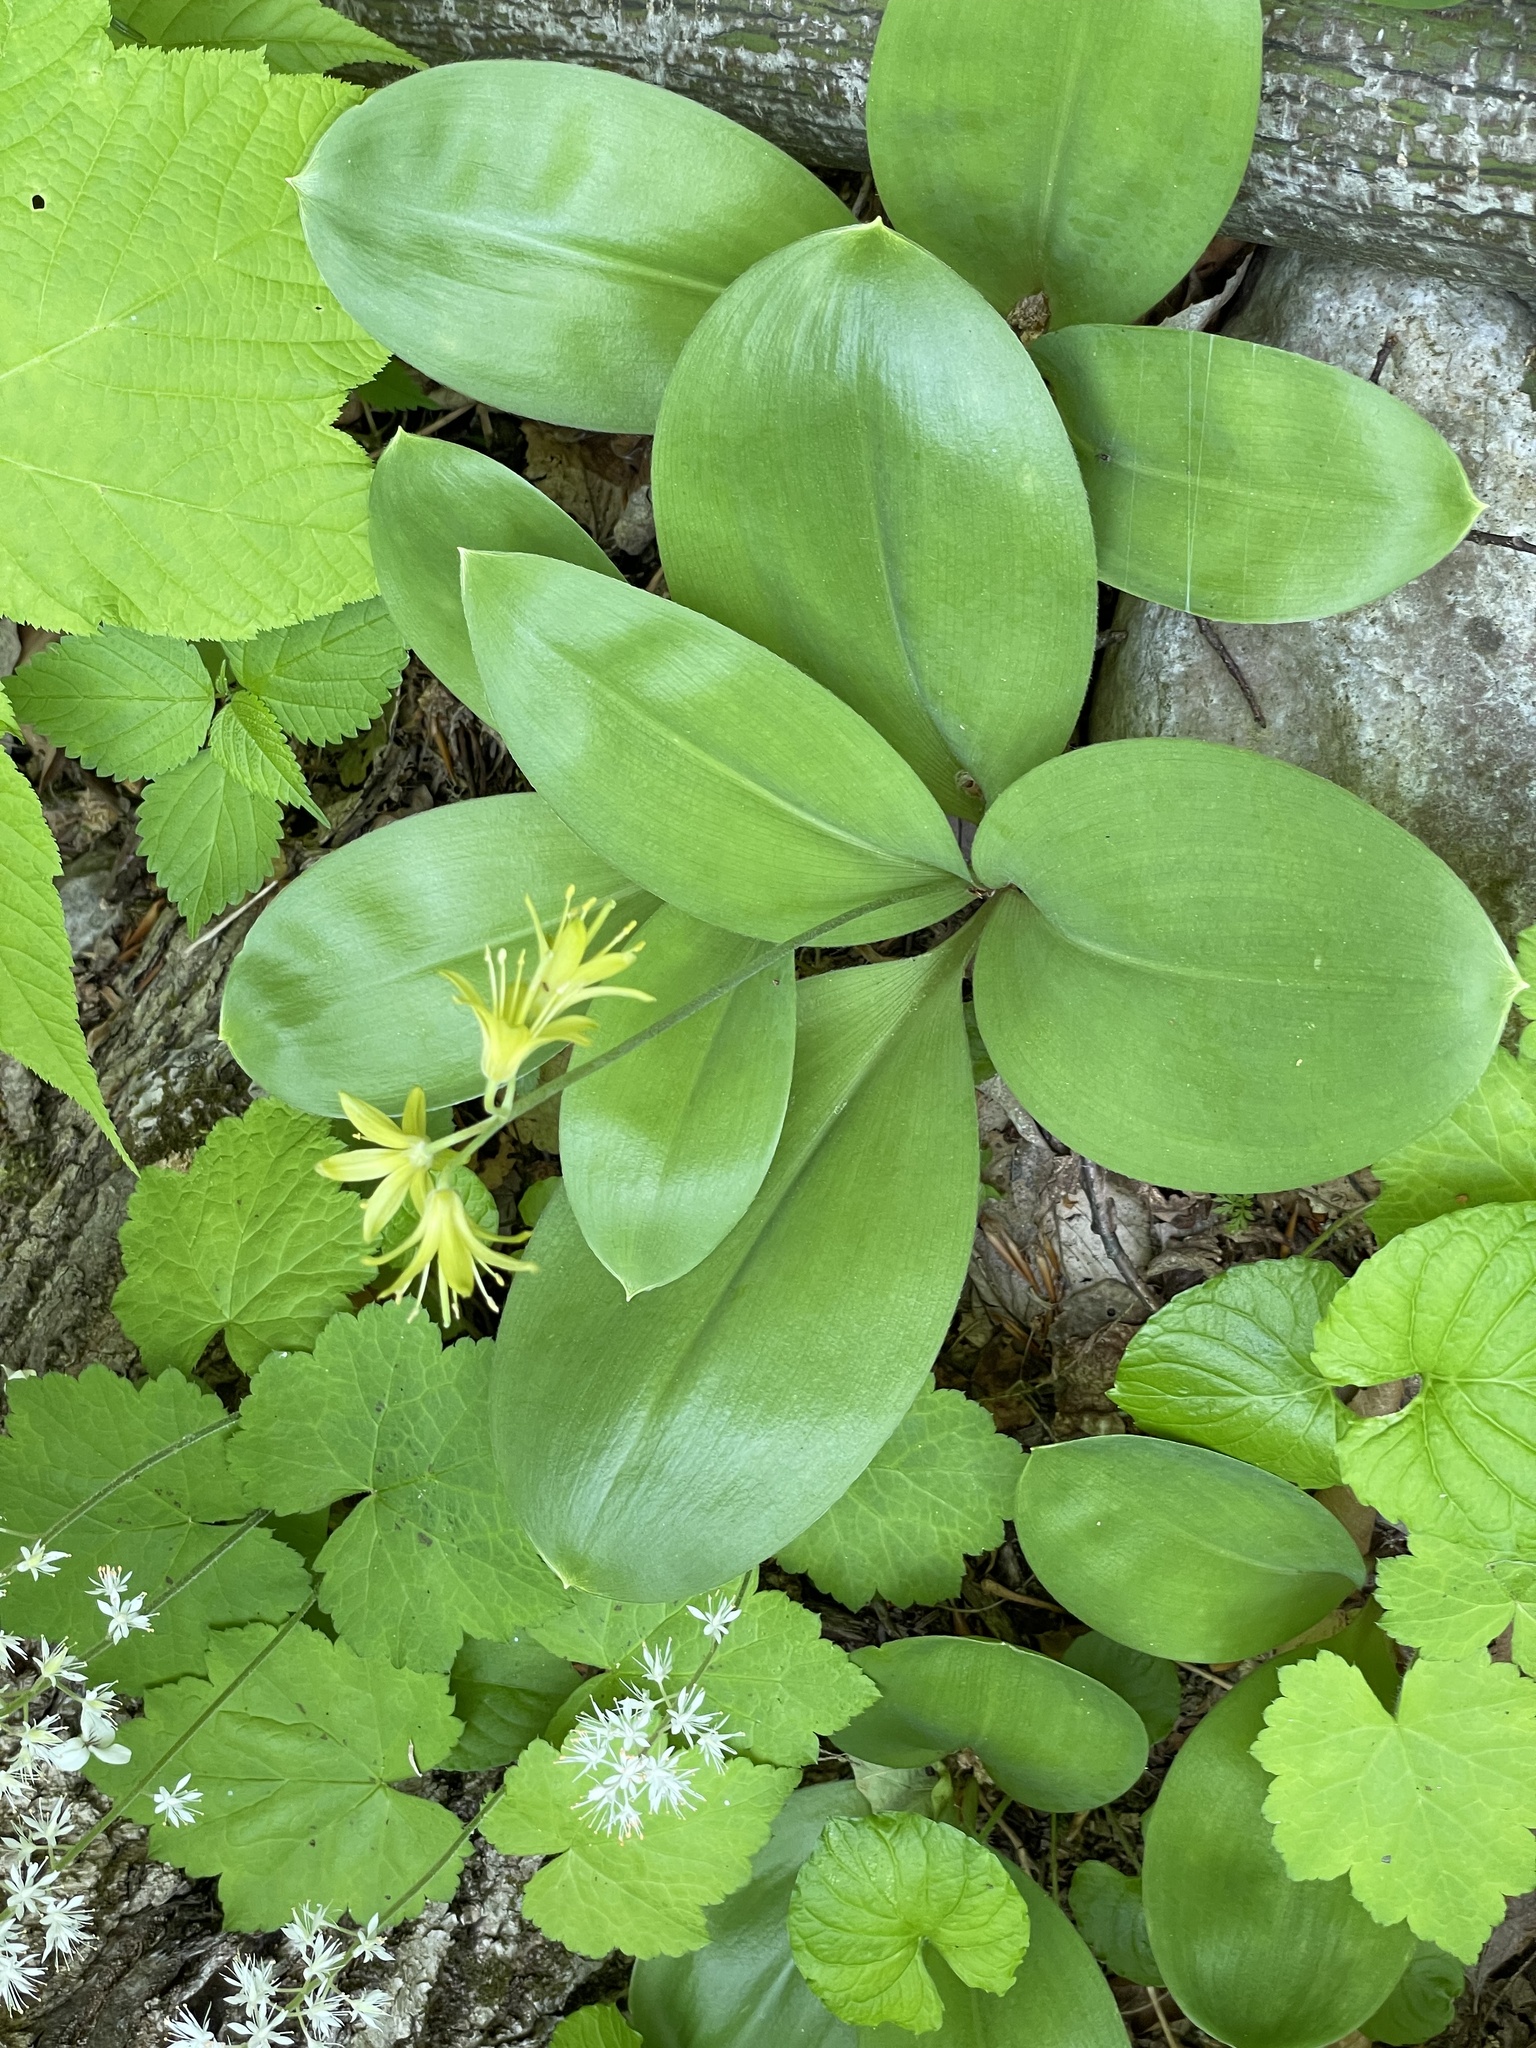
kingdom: Plantae
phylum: Tracheophyta
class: Liliopsida
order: Liliales
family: Liliaceae
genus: Clintonia
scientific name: Clintonia borealis
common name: Yellow clintonia
